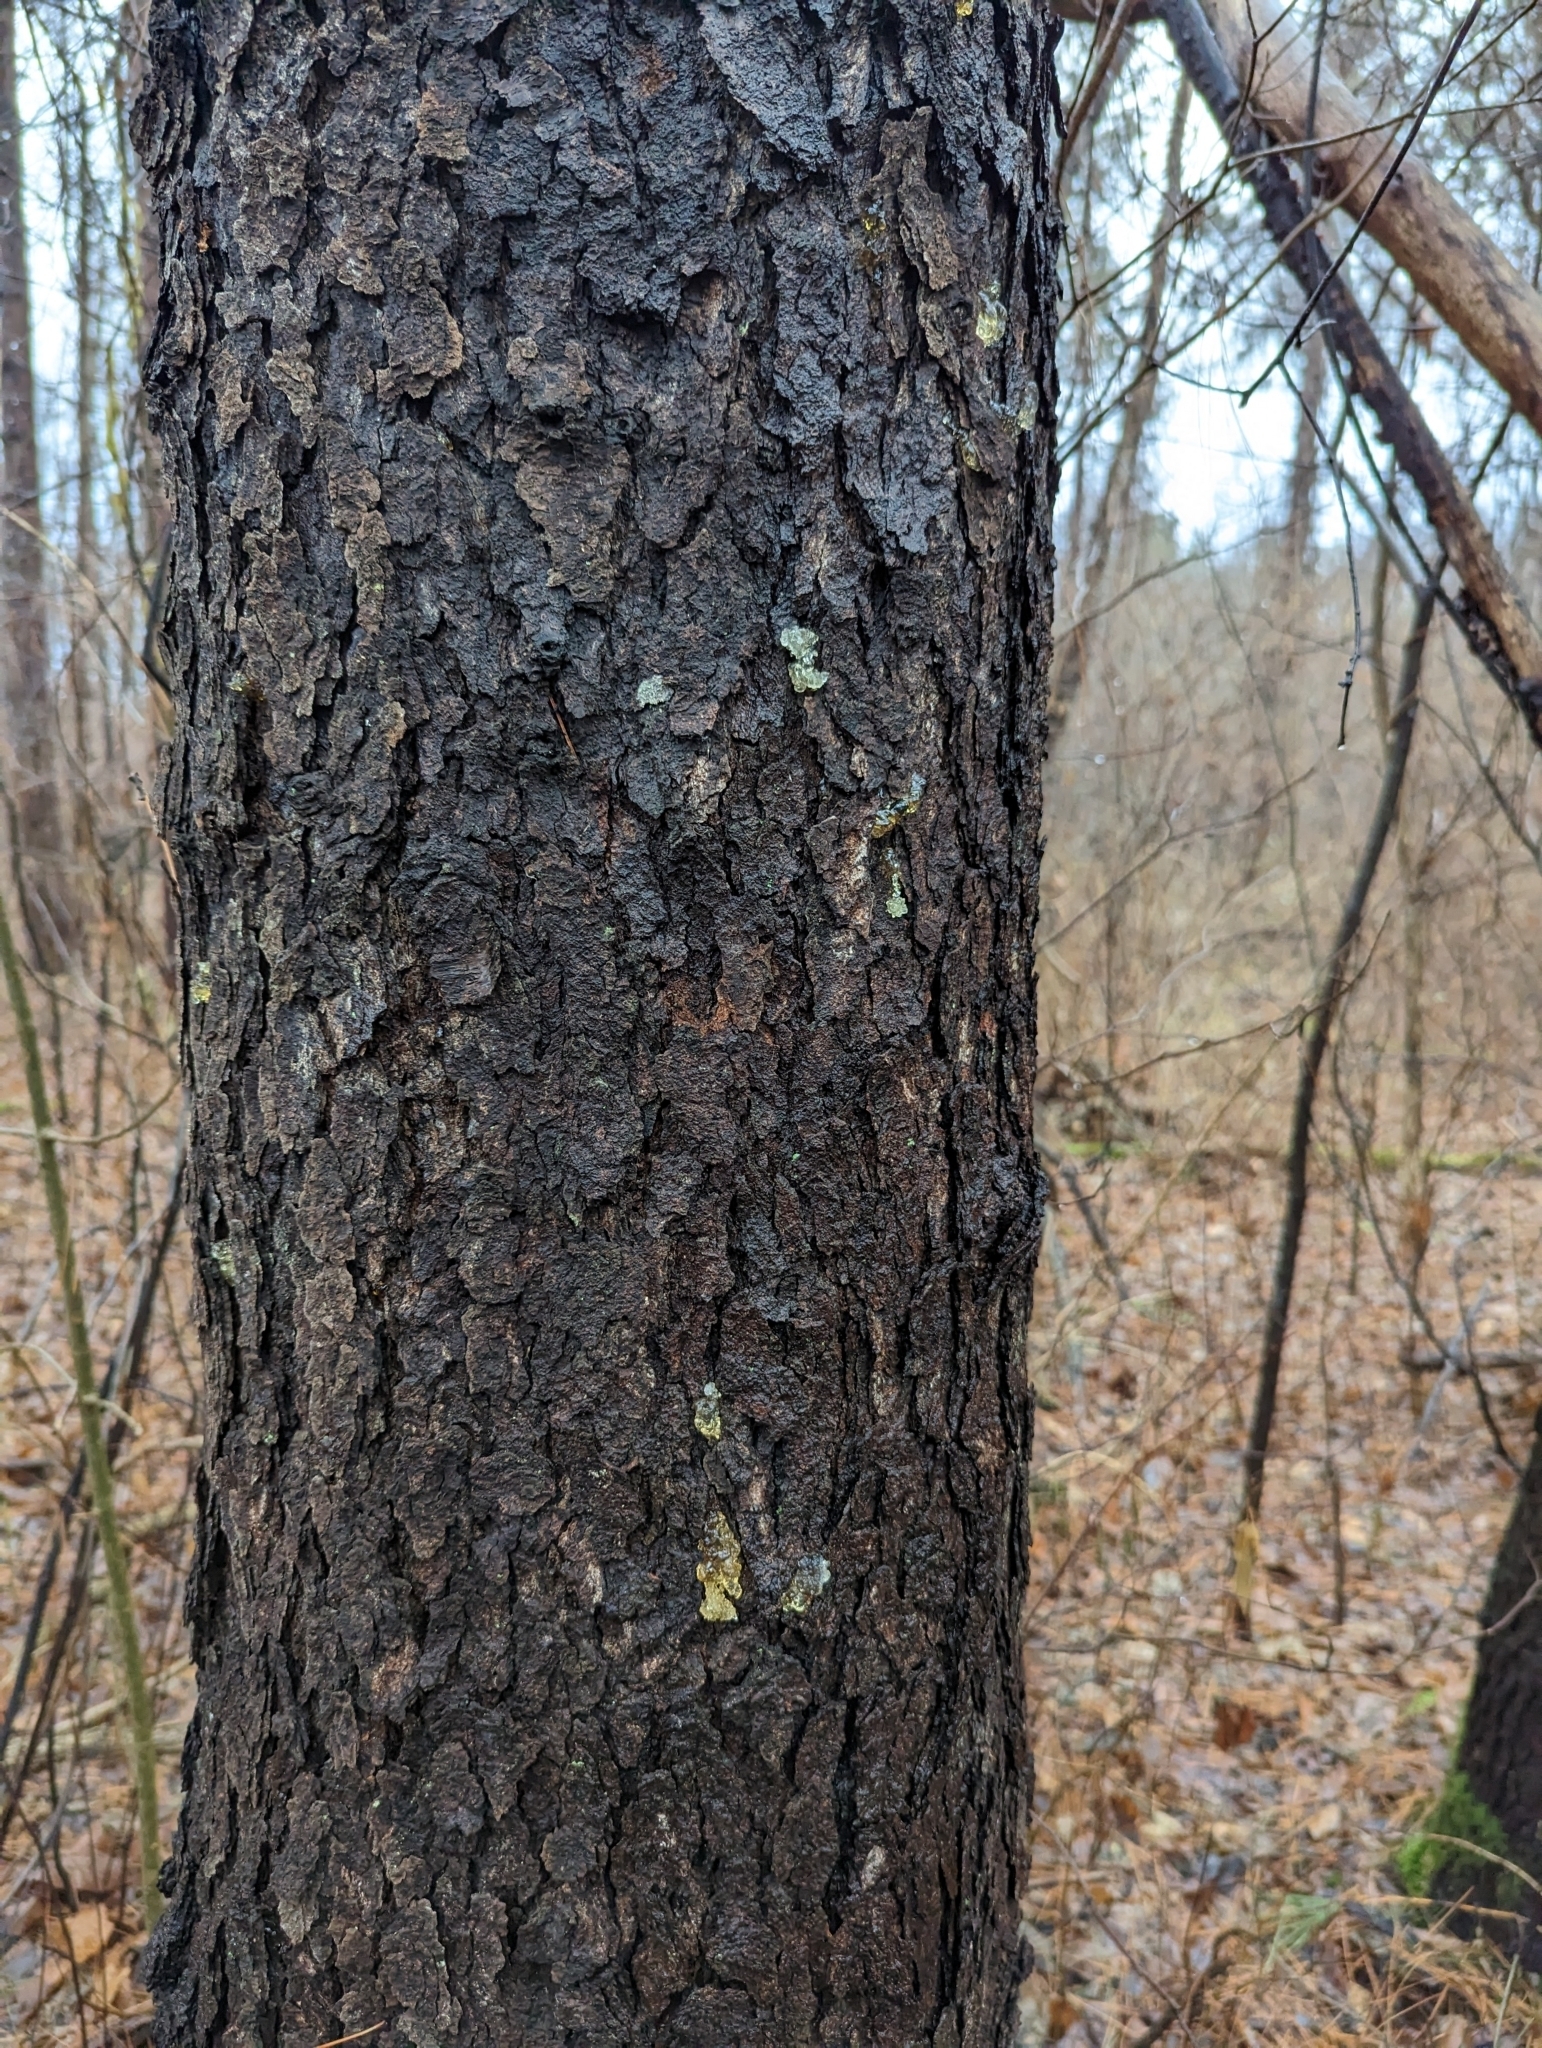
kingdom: Plantae
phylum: Tracheophyta
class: Magnoliopsida
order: Rosales
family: Rosaceae
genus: Prunus
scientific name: Prunus serotina
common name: Black cherry
